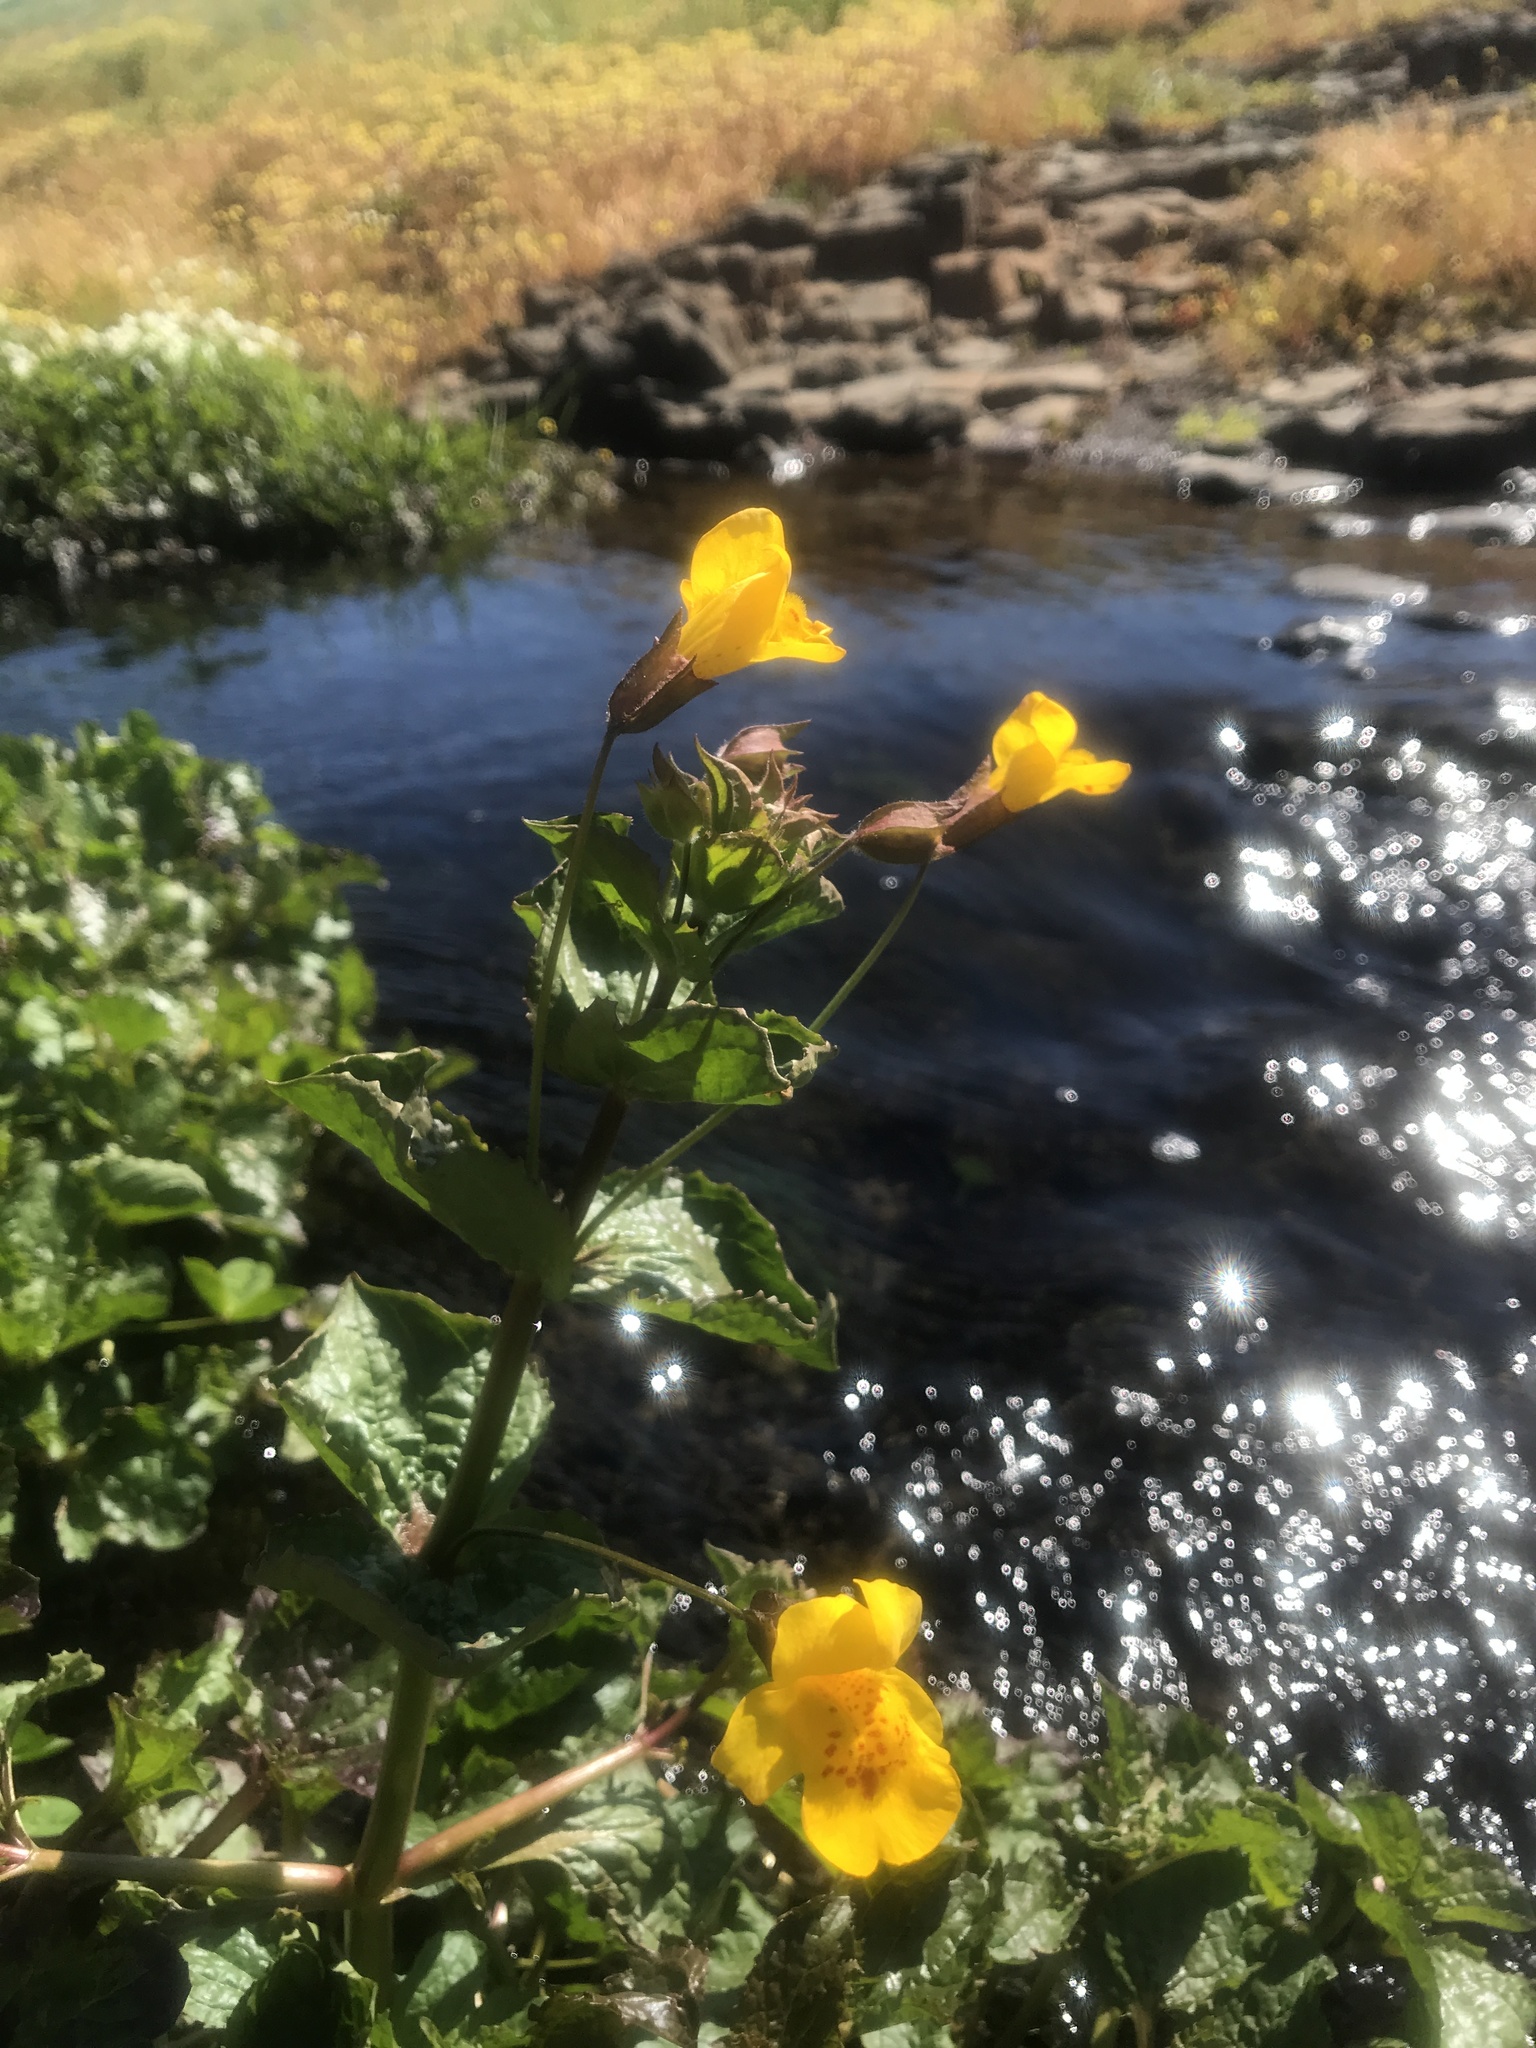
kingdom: Plantae
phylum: Tracheophyta
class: Magnoliopsida
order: Lamiales
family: Phrymaceae
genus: Erythranthe
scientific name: Erythranthe guttata
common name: Monkeyflower
